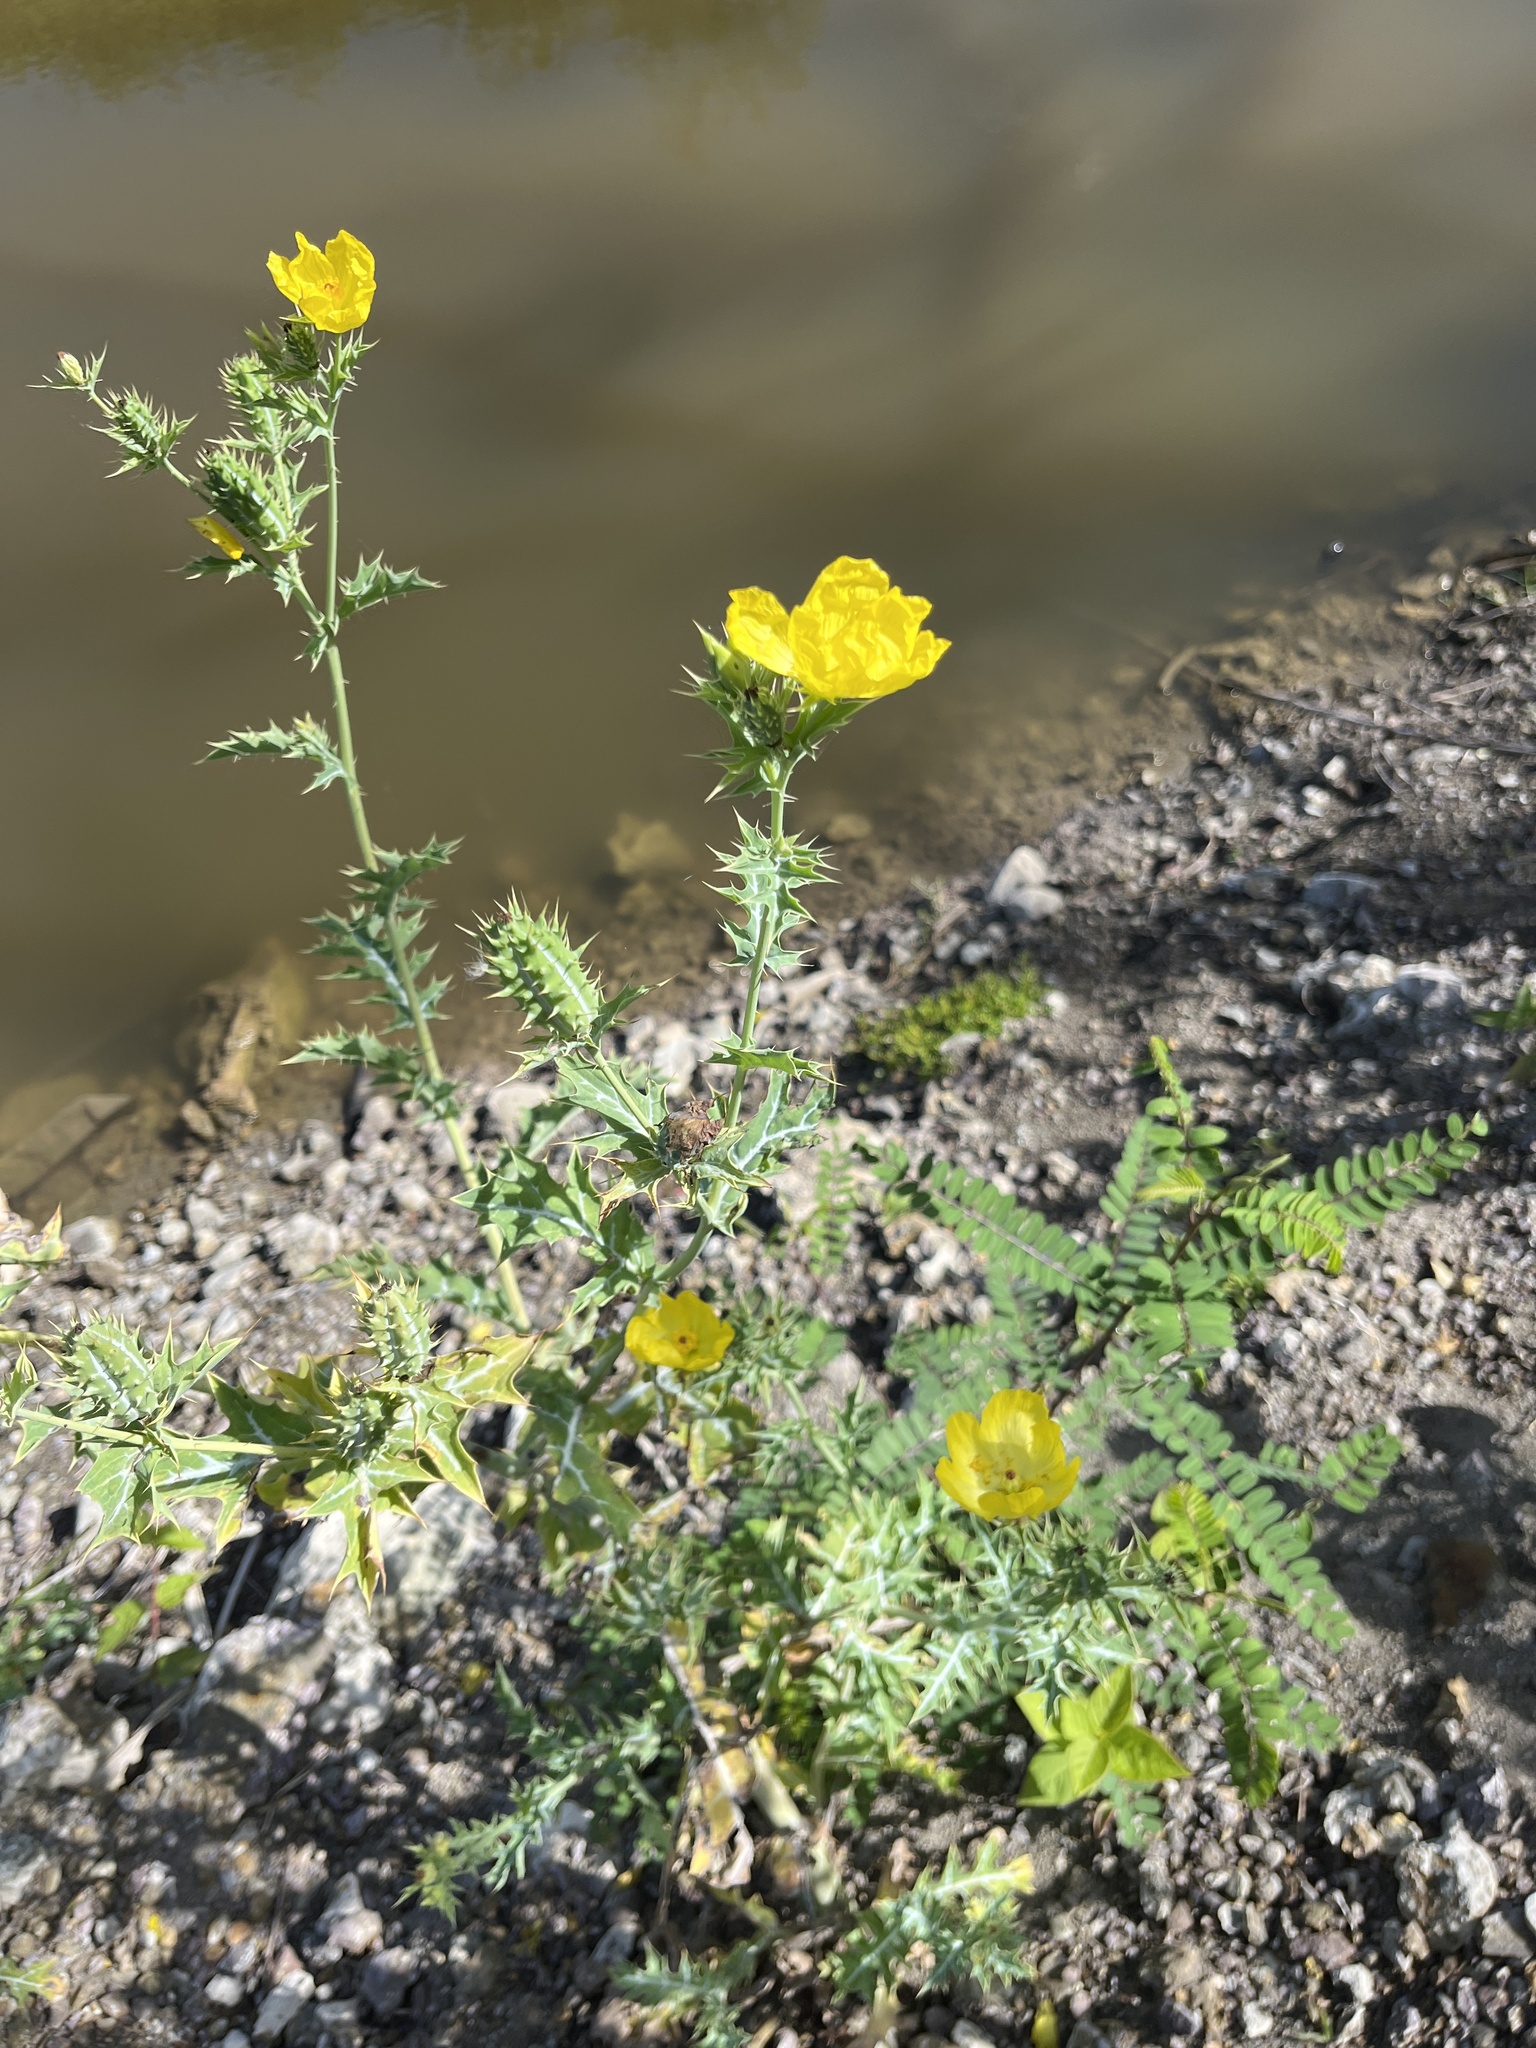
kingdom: Plantae
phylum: Tracheophyta
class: Magnoliopsida
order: Ranunculales
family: Papaveraceae
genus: Argemone
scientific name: Argemone mexicana
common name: Mexican poppy
